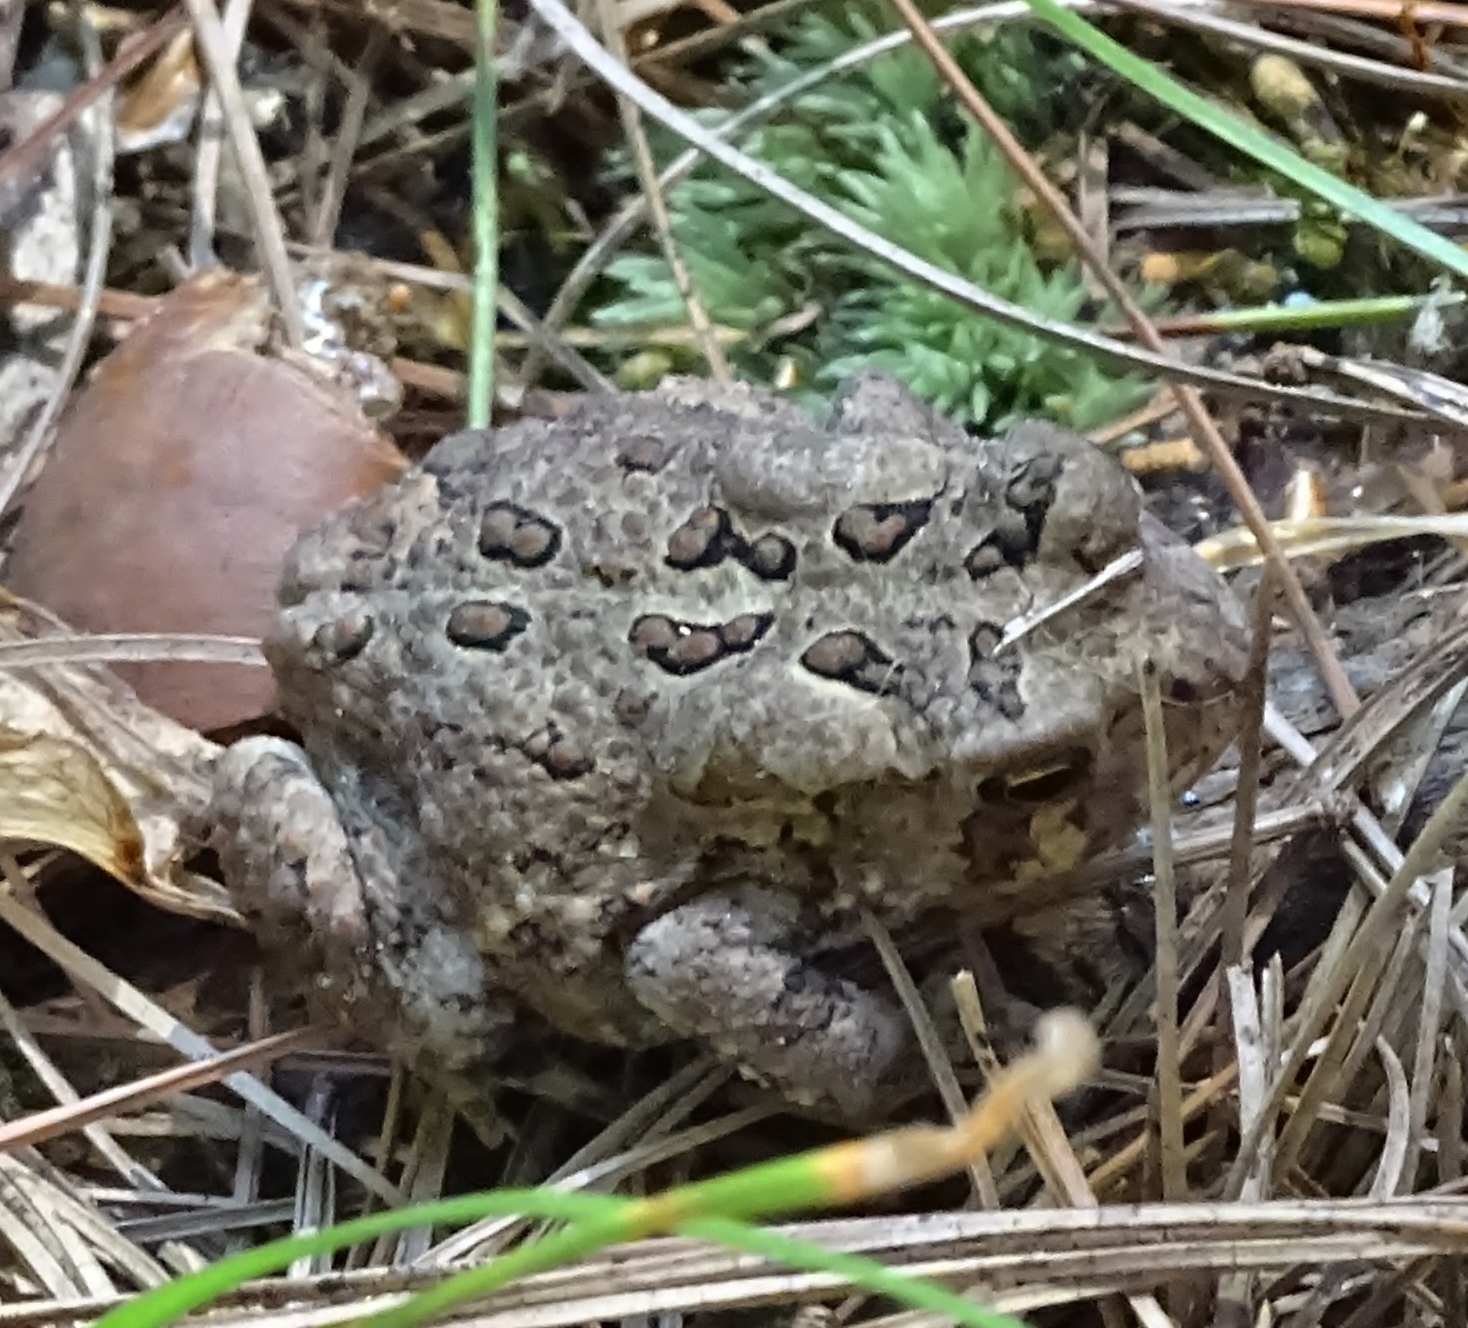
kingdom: Animalia
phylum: Chordata
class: Amphibia
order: Anura
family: Bufonidae
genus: Anaxyrus
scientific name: Anaxyrus americanus
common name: American toad
